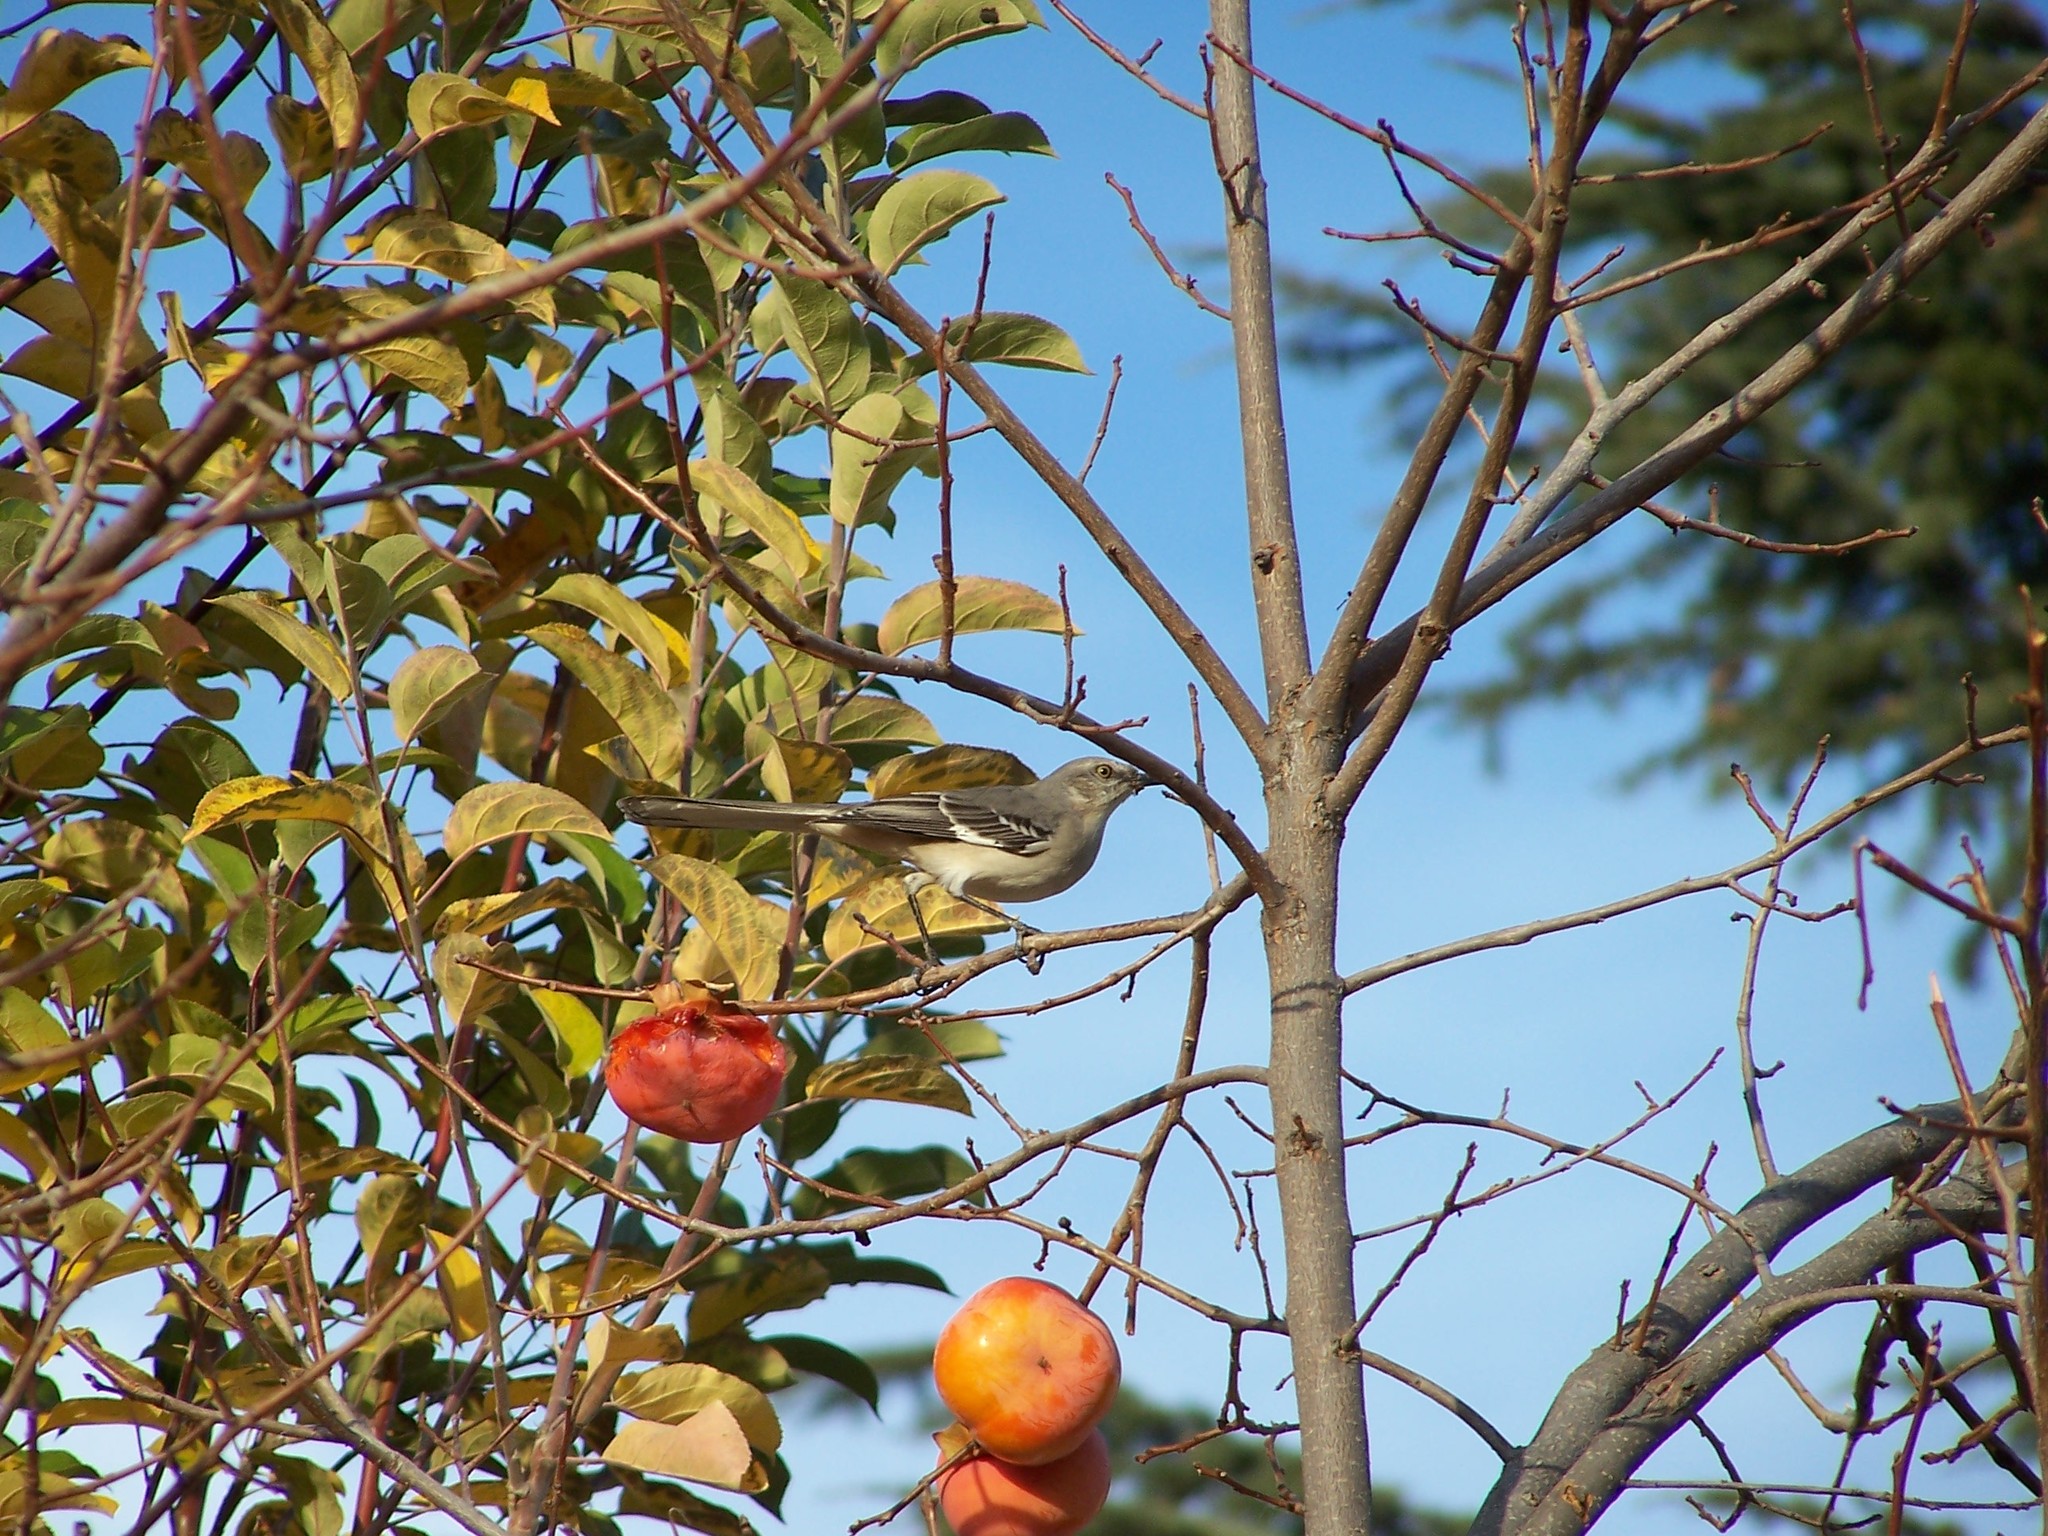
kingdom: Animalia
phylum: Chordata
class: Aves
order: Passeriformes
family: Mimidae
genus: Mimus
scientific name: Mimus polyglottos
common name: Northern mockingbird
